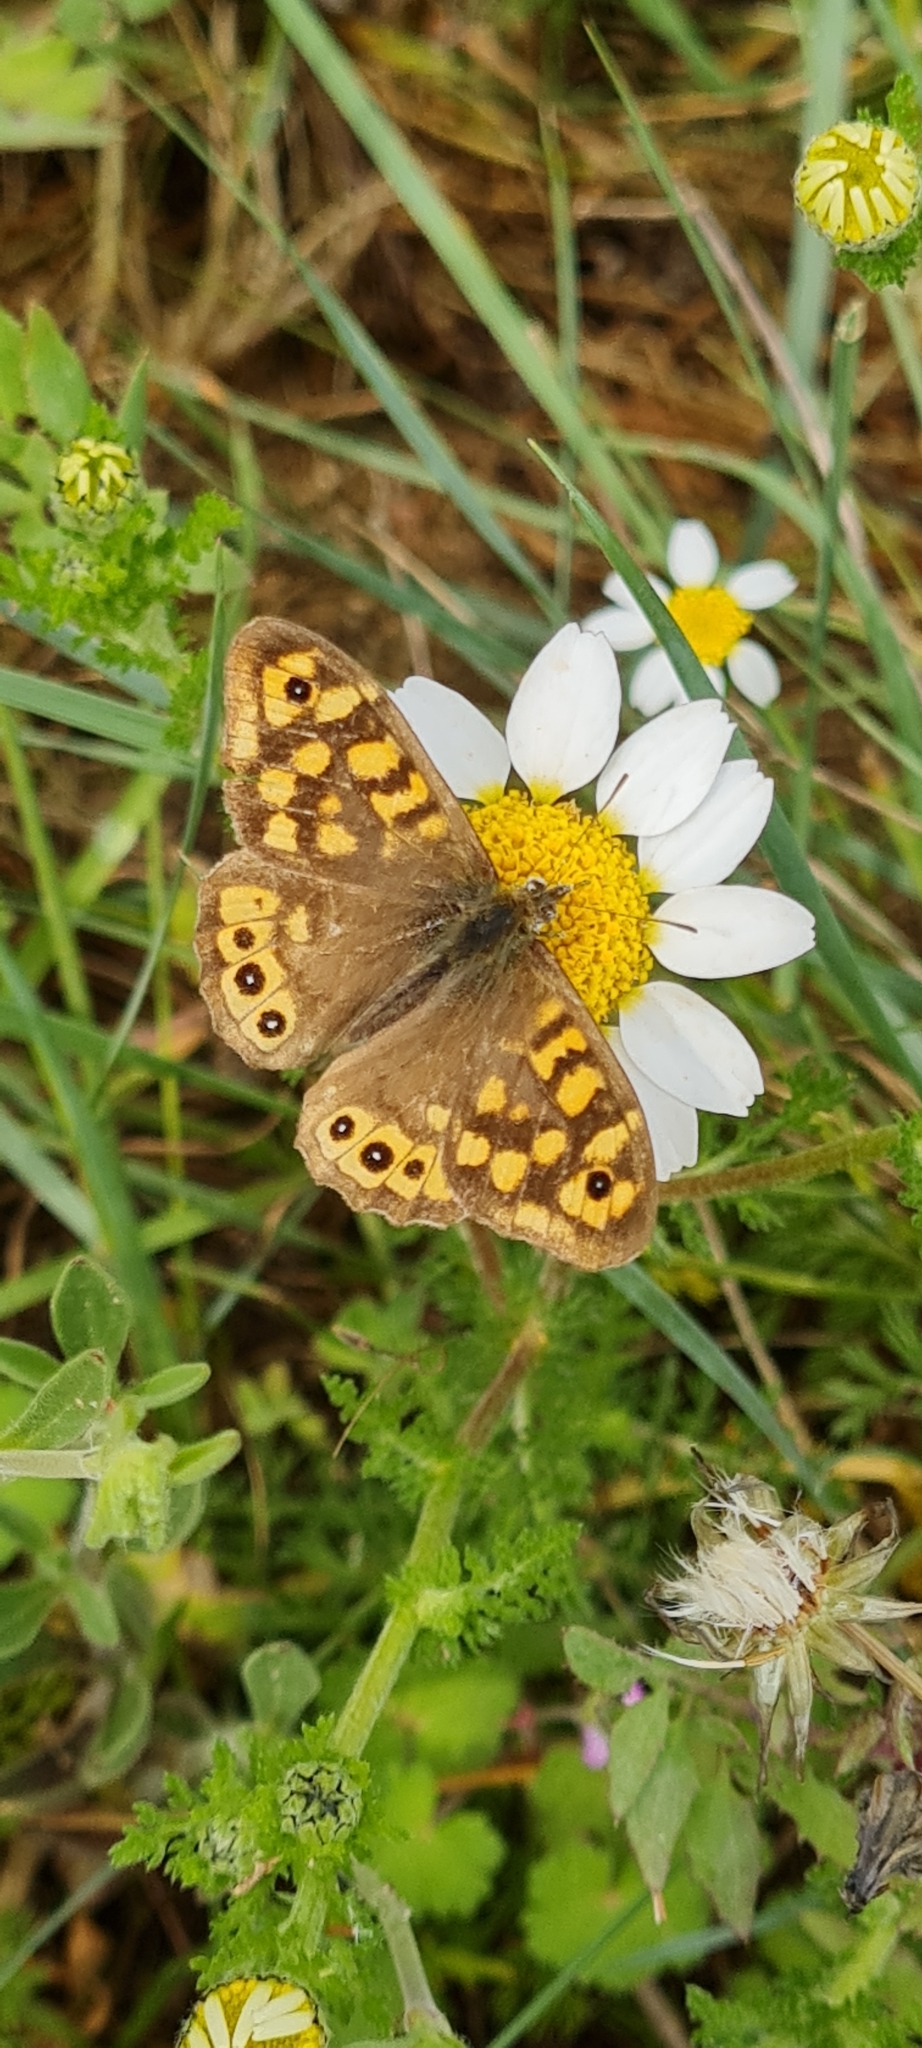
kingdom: Animalia
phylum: Arthropoda
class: Insecta
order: Lepidoptera
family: Nymphalidae
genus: Pararge
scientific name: Pararge aegeria
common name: Speckled wood
